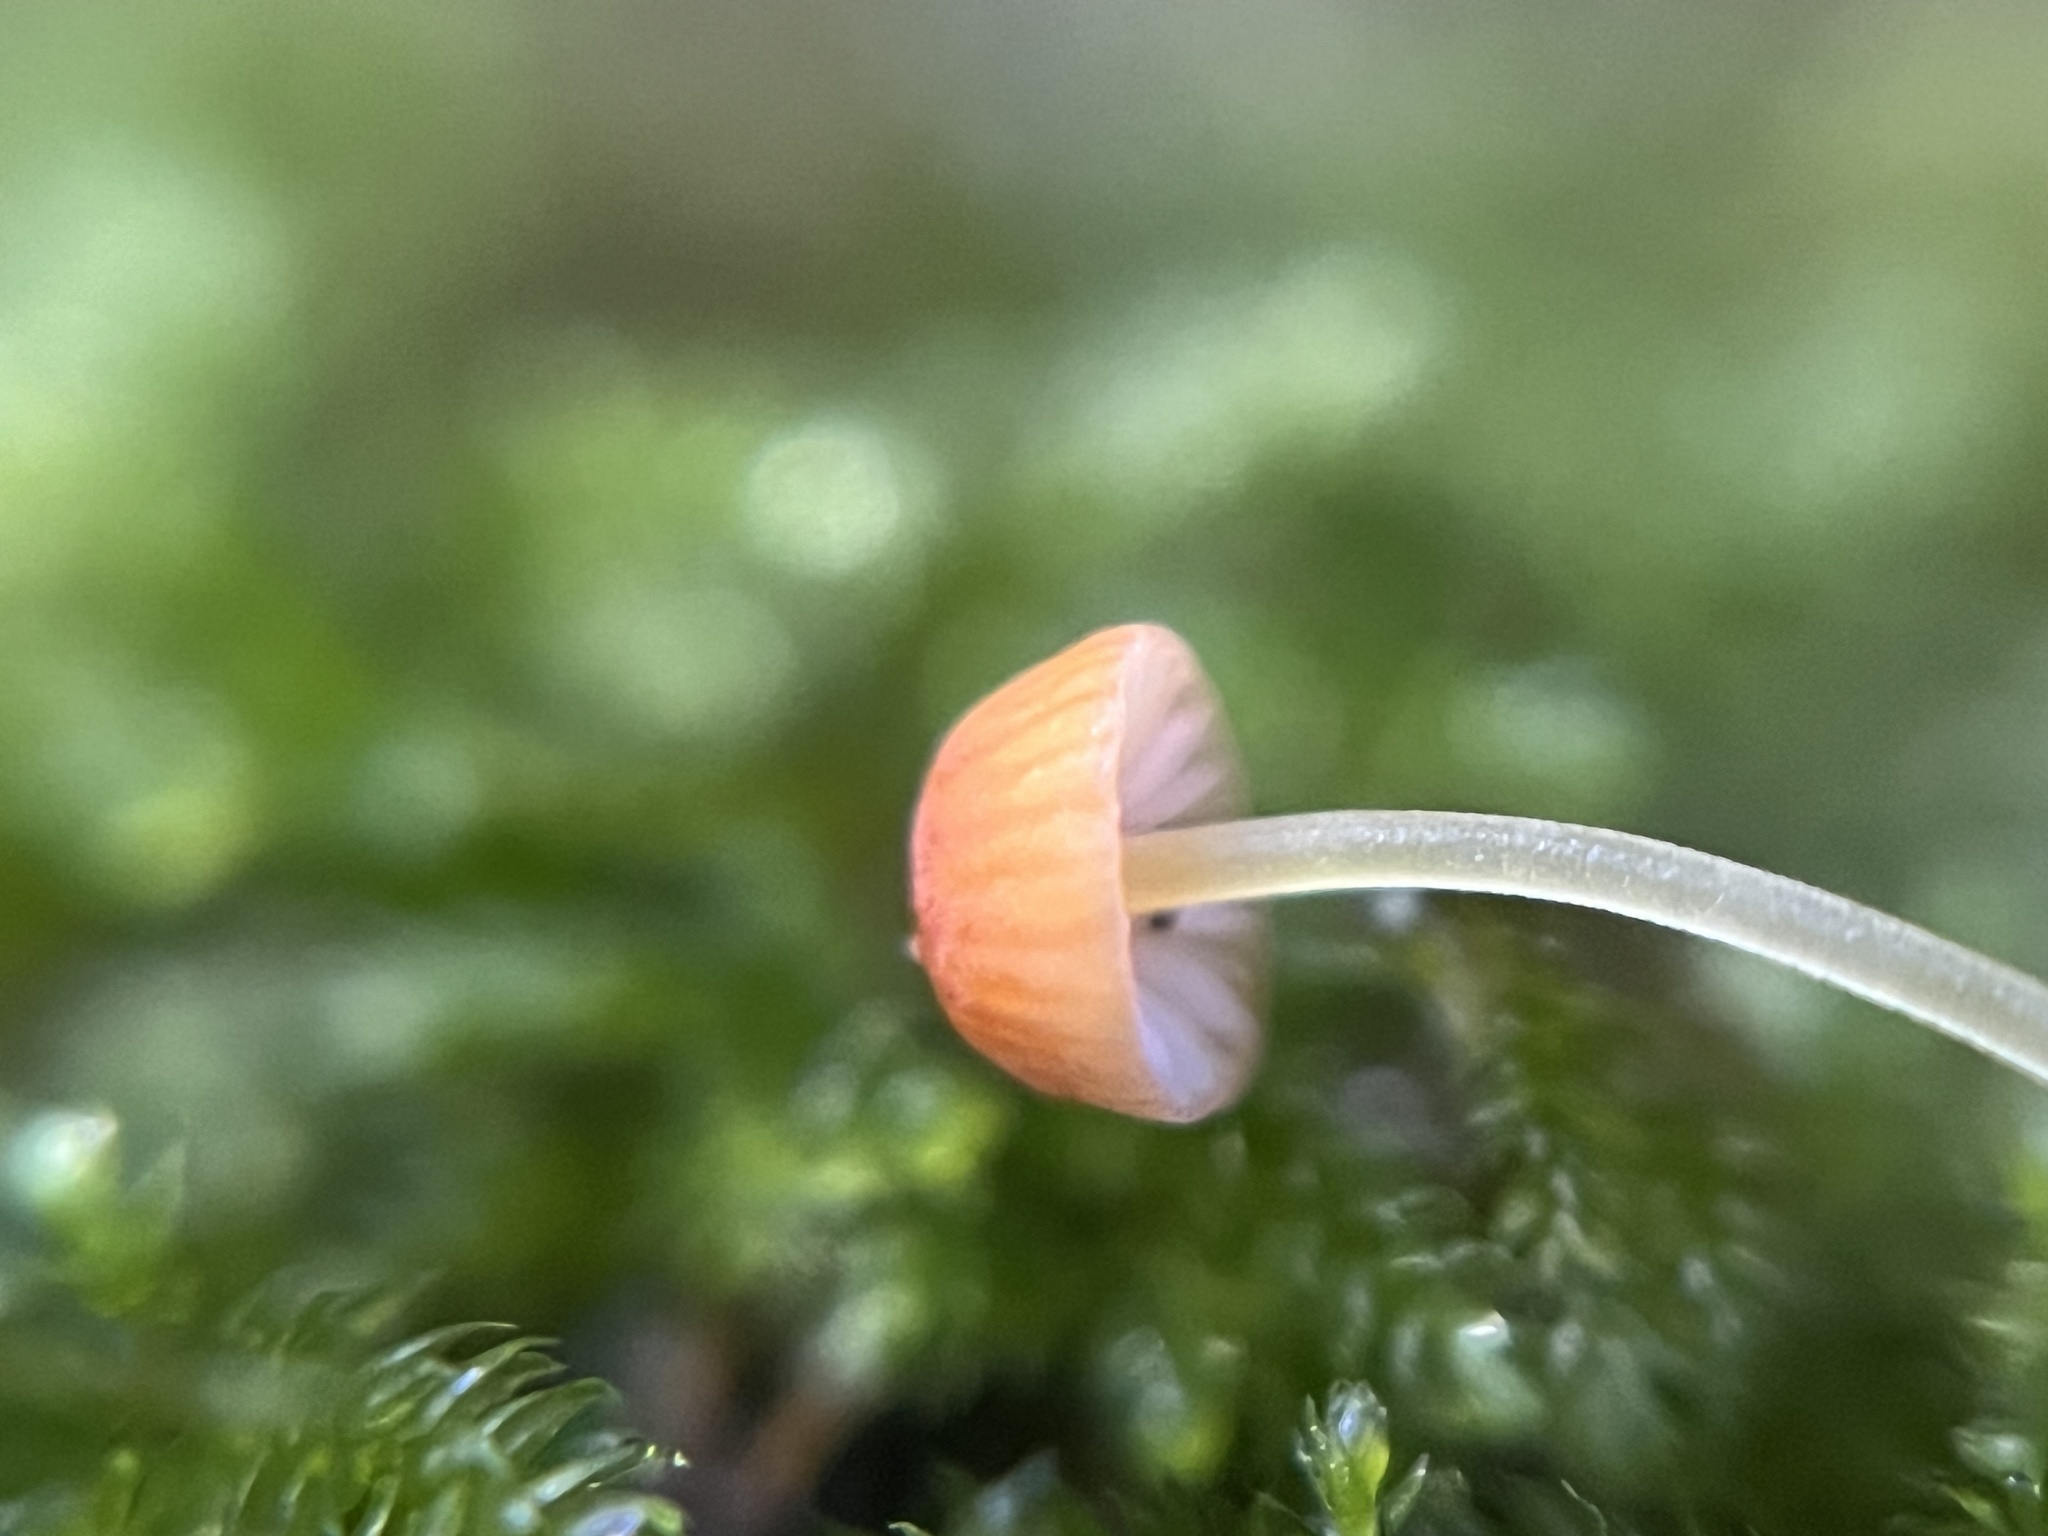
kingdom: Fungi
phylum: Basidiomycota
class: Agaricomycetes
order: Agaricales
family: Mycenaceae
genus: Mycena
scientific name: Mycena acicula
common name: Orange bonnet
